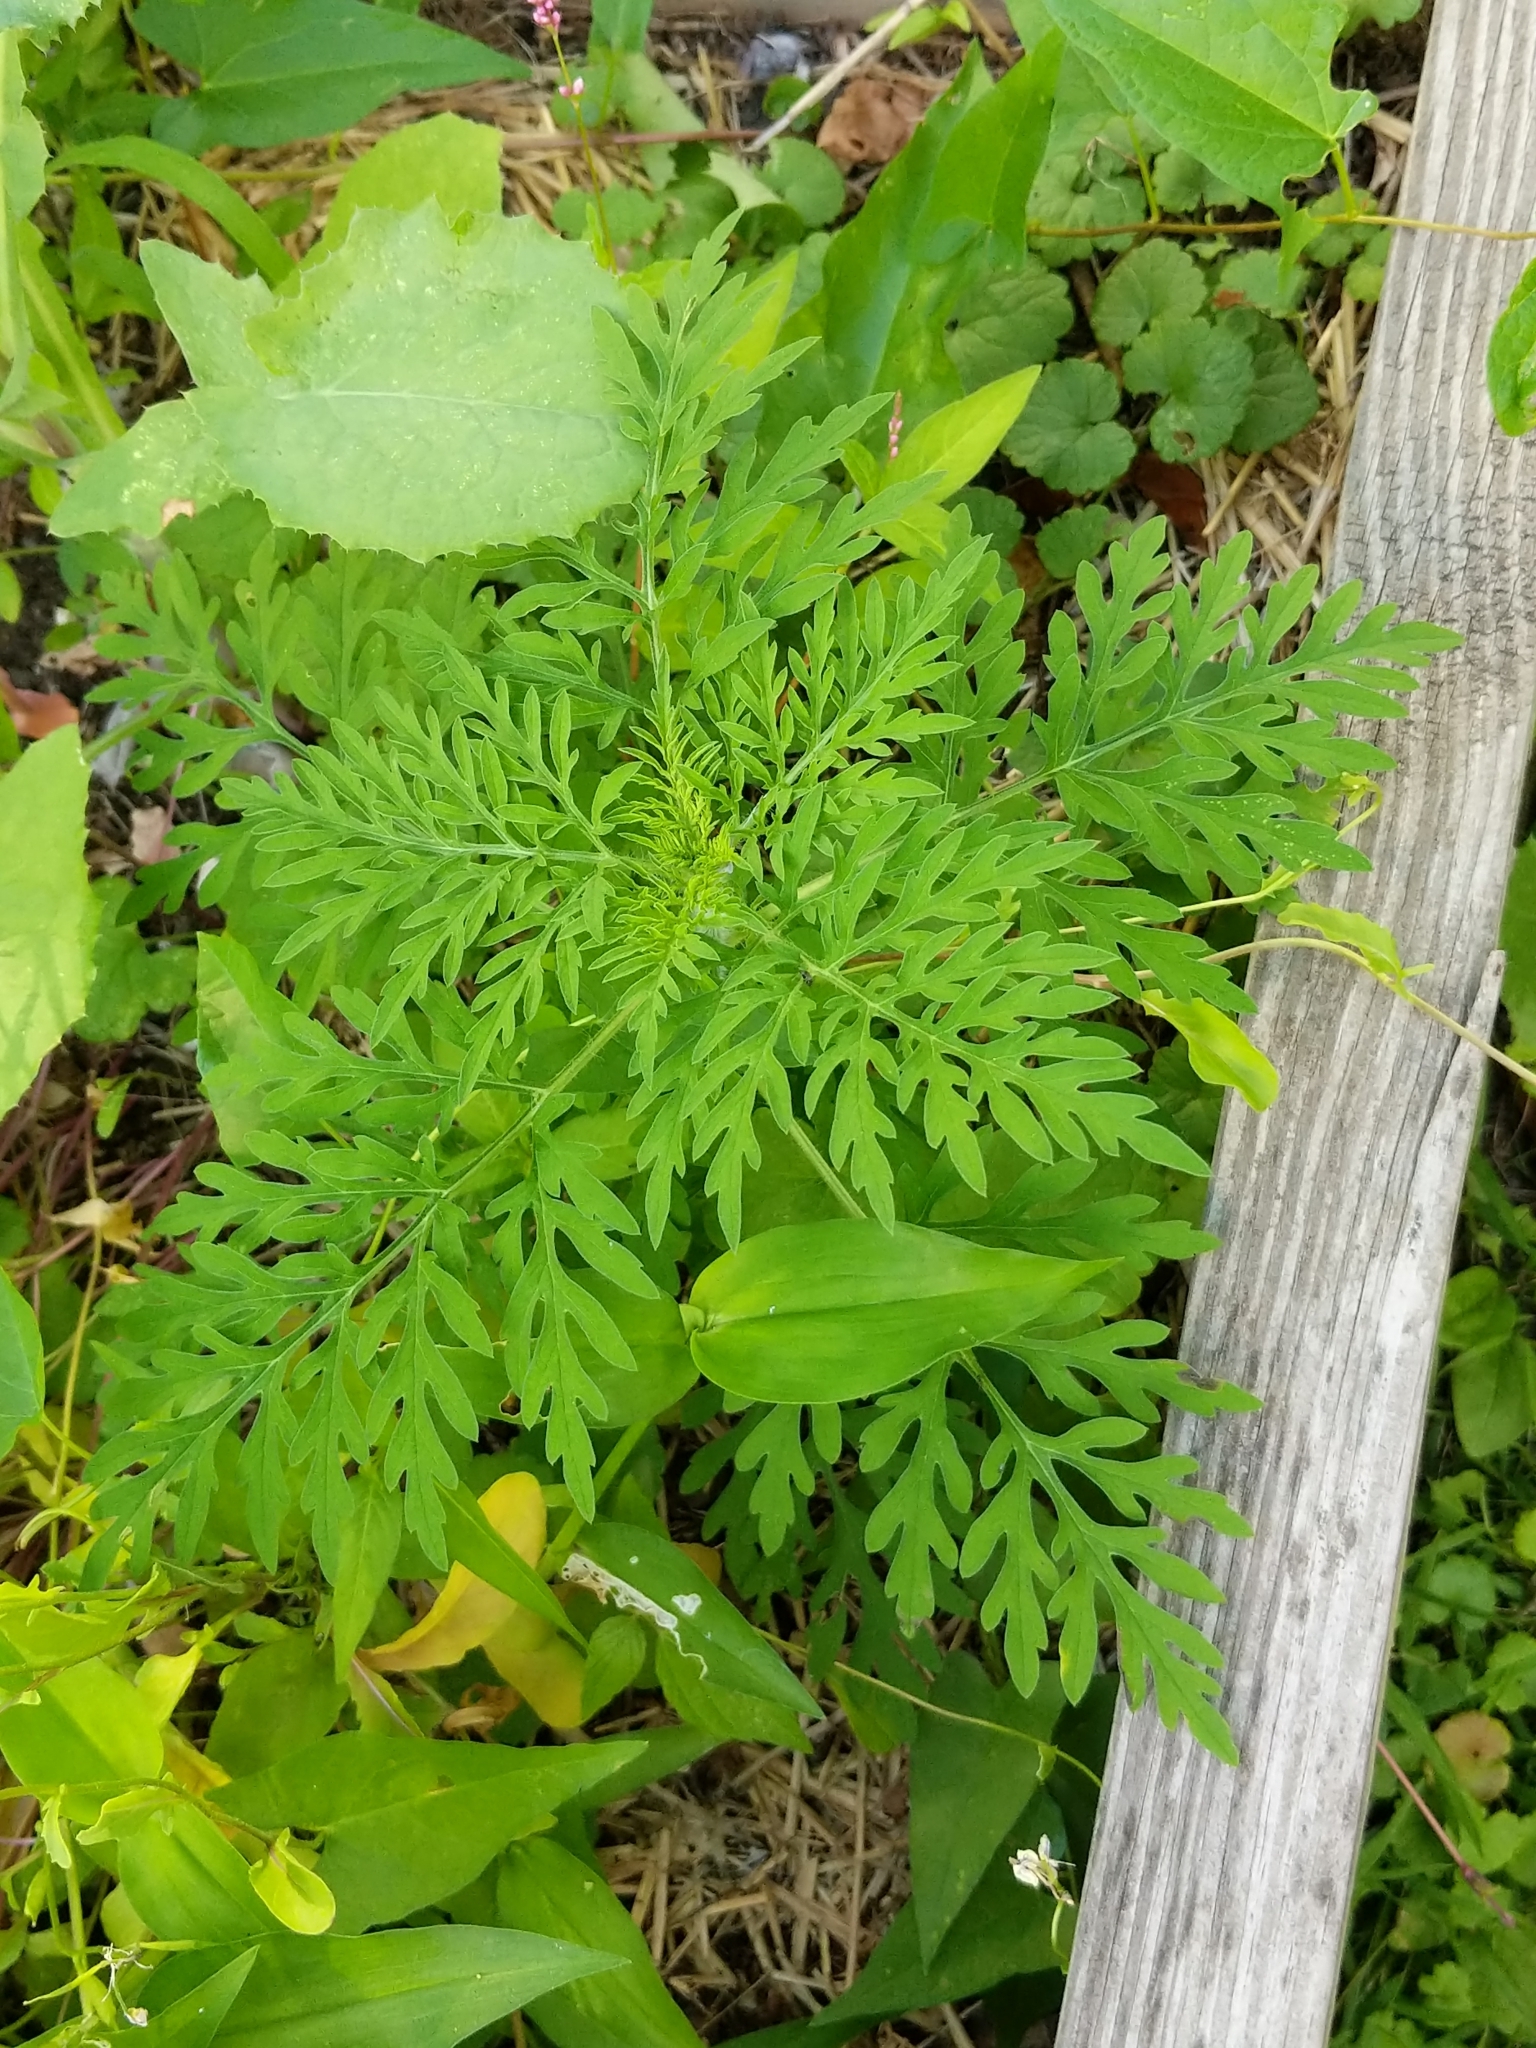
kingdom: Plantae
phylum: Tracheophyta
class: Magnoliopsida
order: Asterales
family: Asteraceae
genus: Ambrosia
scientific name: Ambrosia artemisiifolia
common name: Annual ragweed
